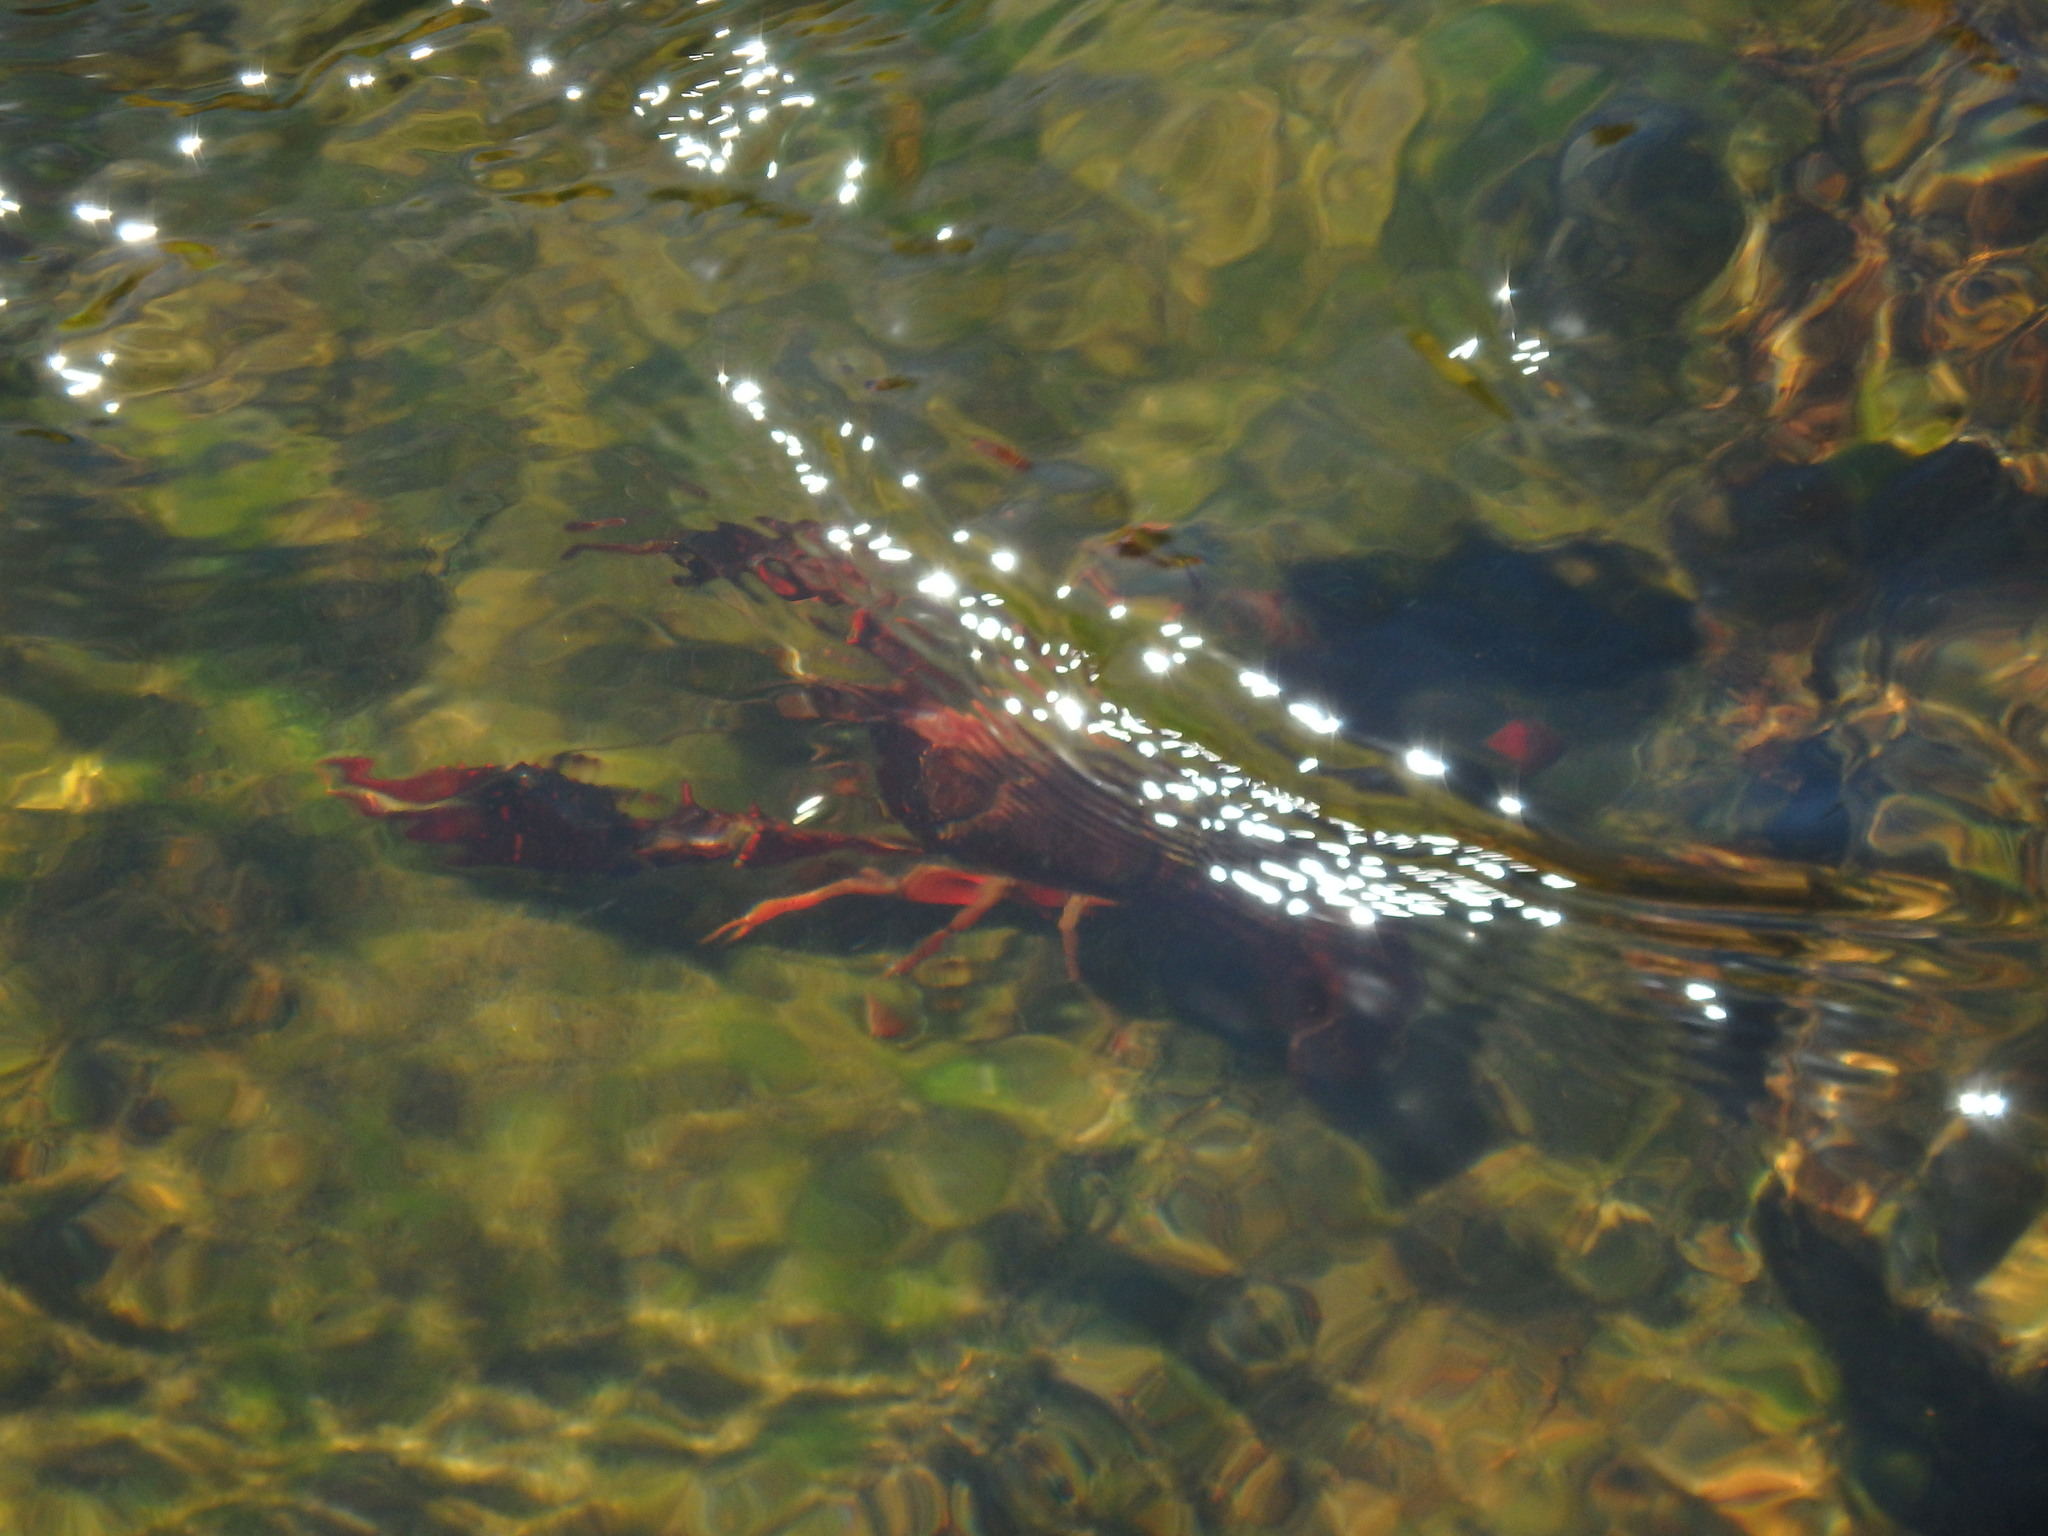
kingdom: Animalia
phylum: Arthropoda
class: Malacostraca
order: Decapoda
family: Cambaridae
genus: Procambarus
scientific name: Procambarus clarkii
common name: Red swamp crayfish
